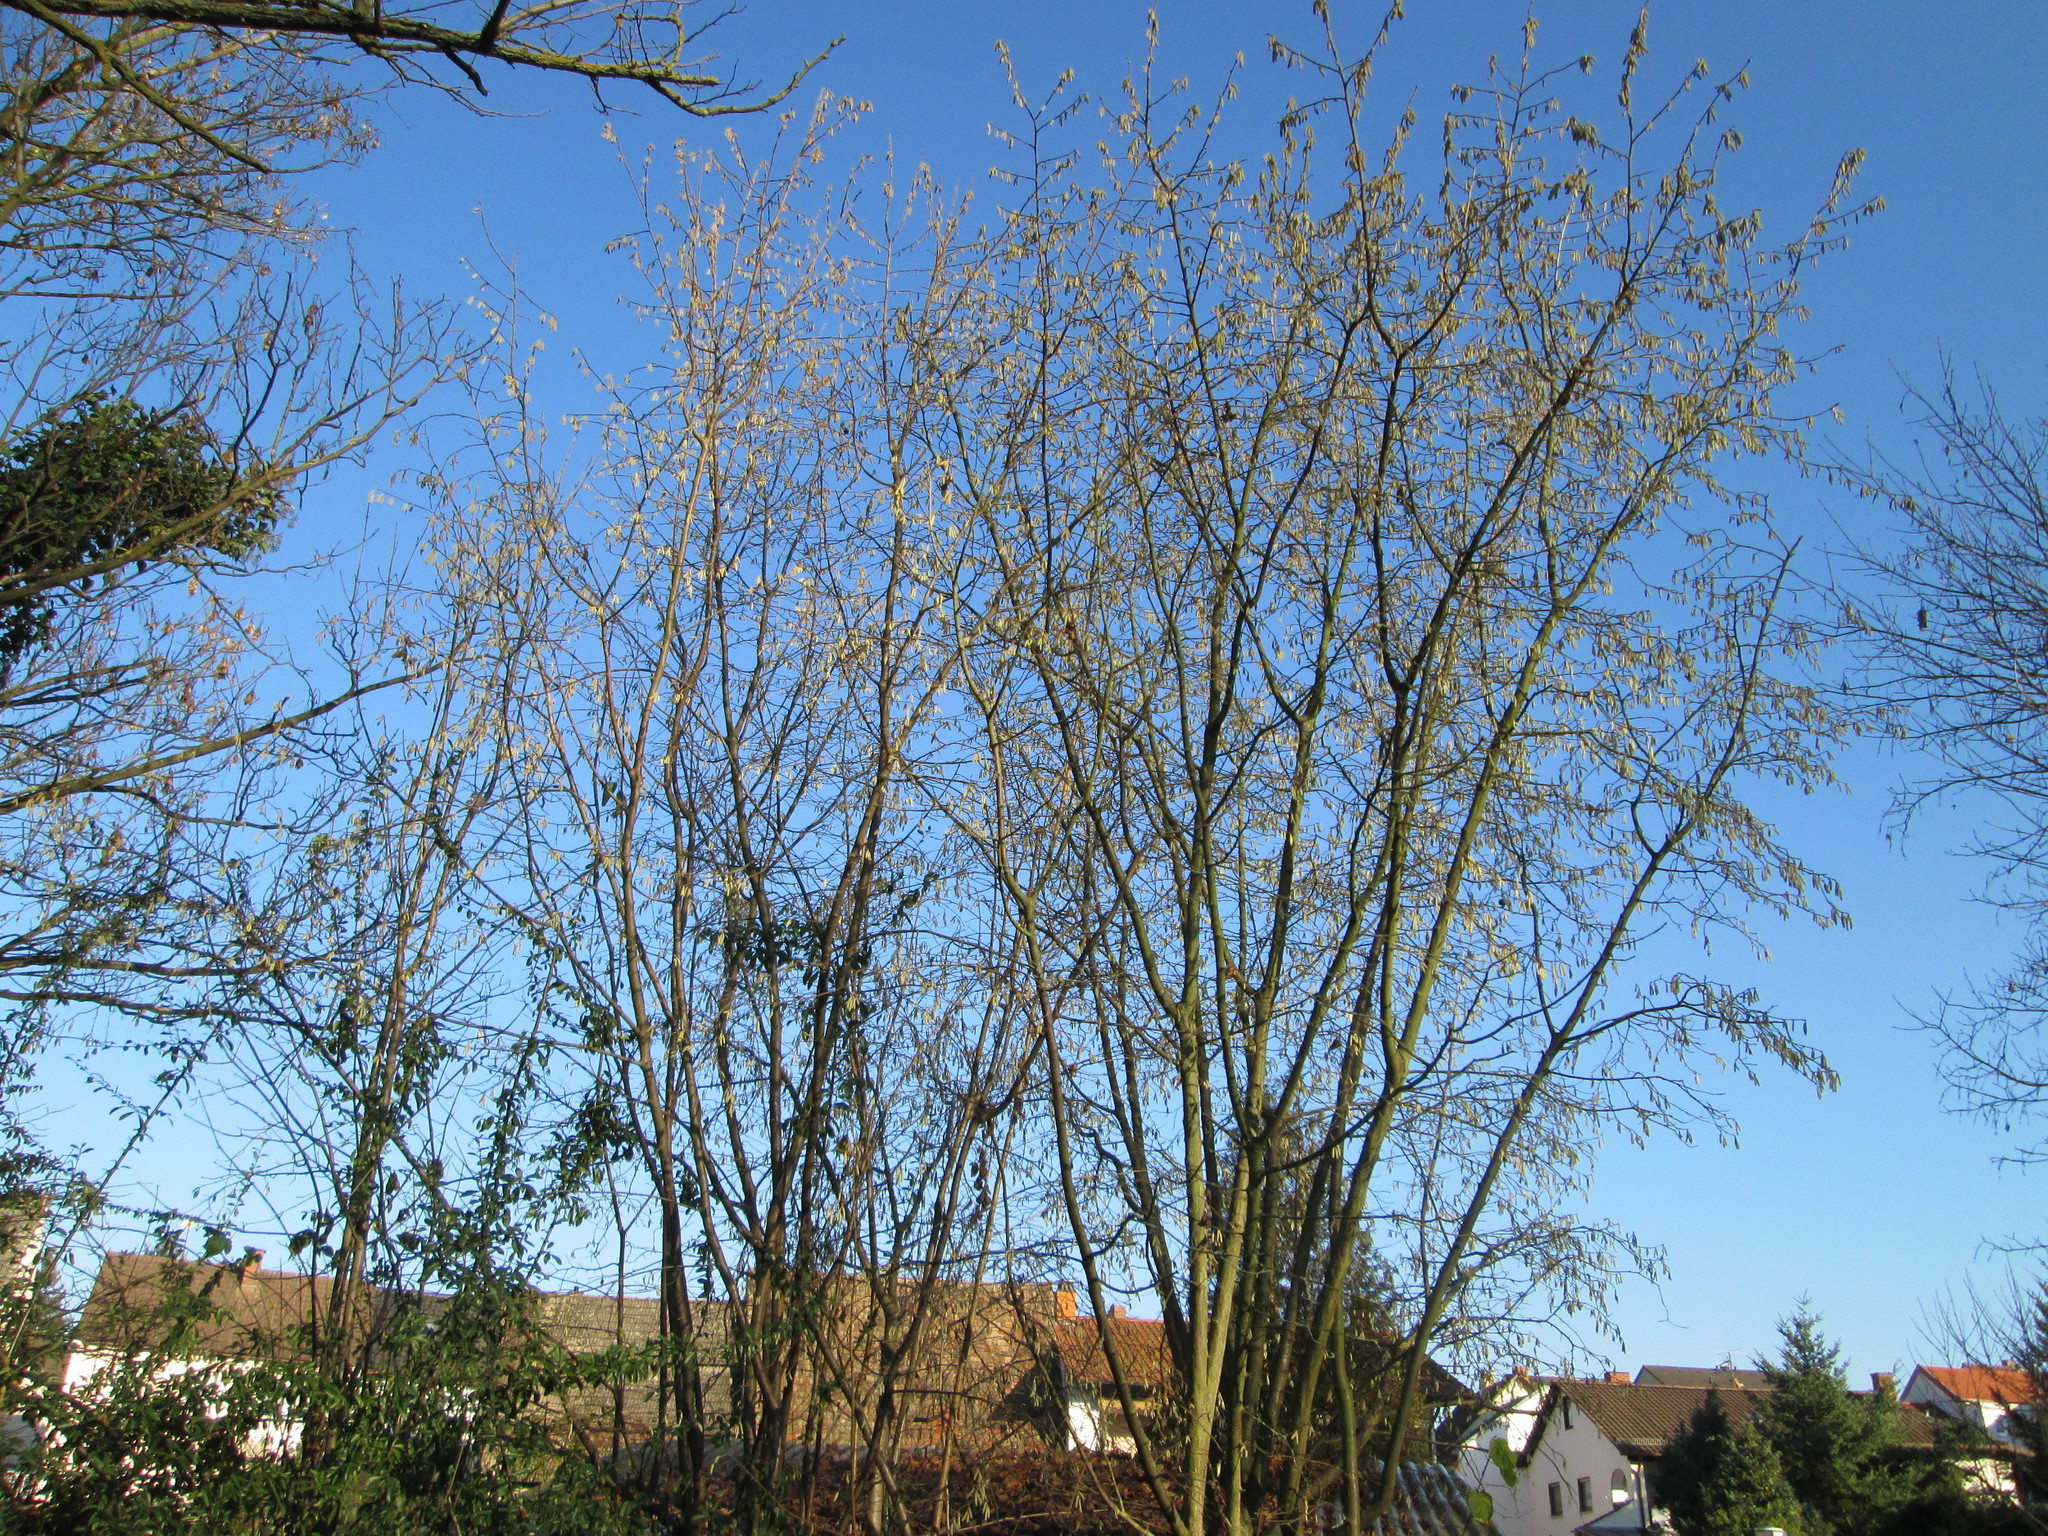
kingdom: Plantae
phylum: Tracheophyta
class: Magnoliopsida
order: Fagales
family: Betulaceae
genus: Corylus
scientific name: Corylus avellana
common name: European hazel
